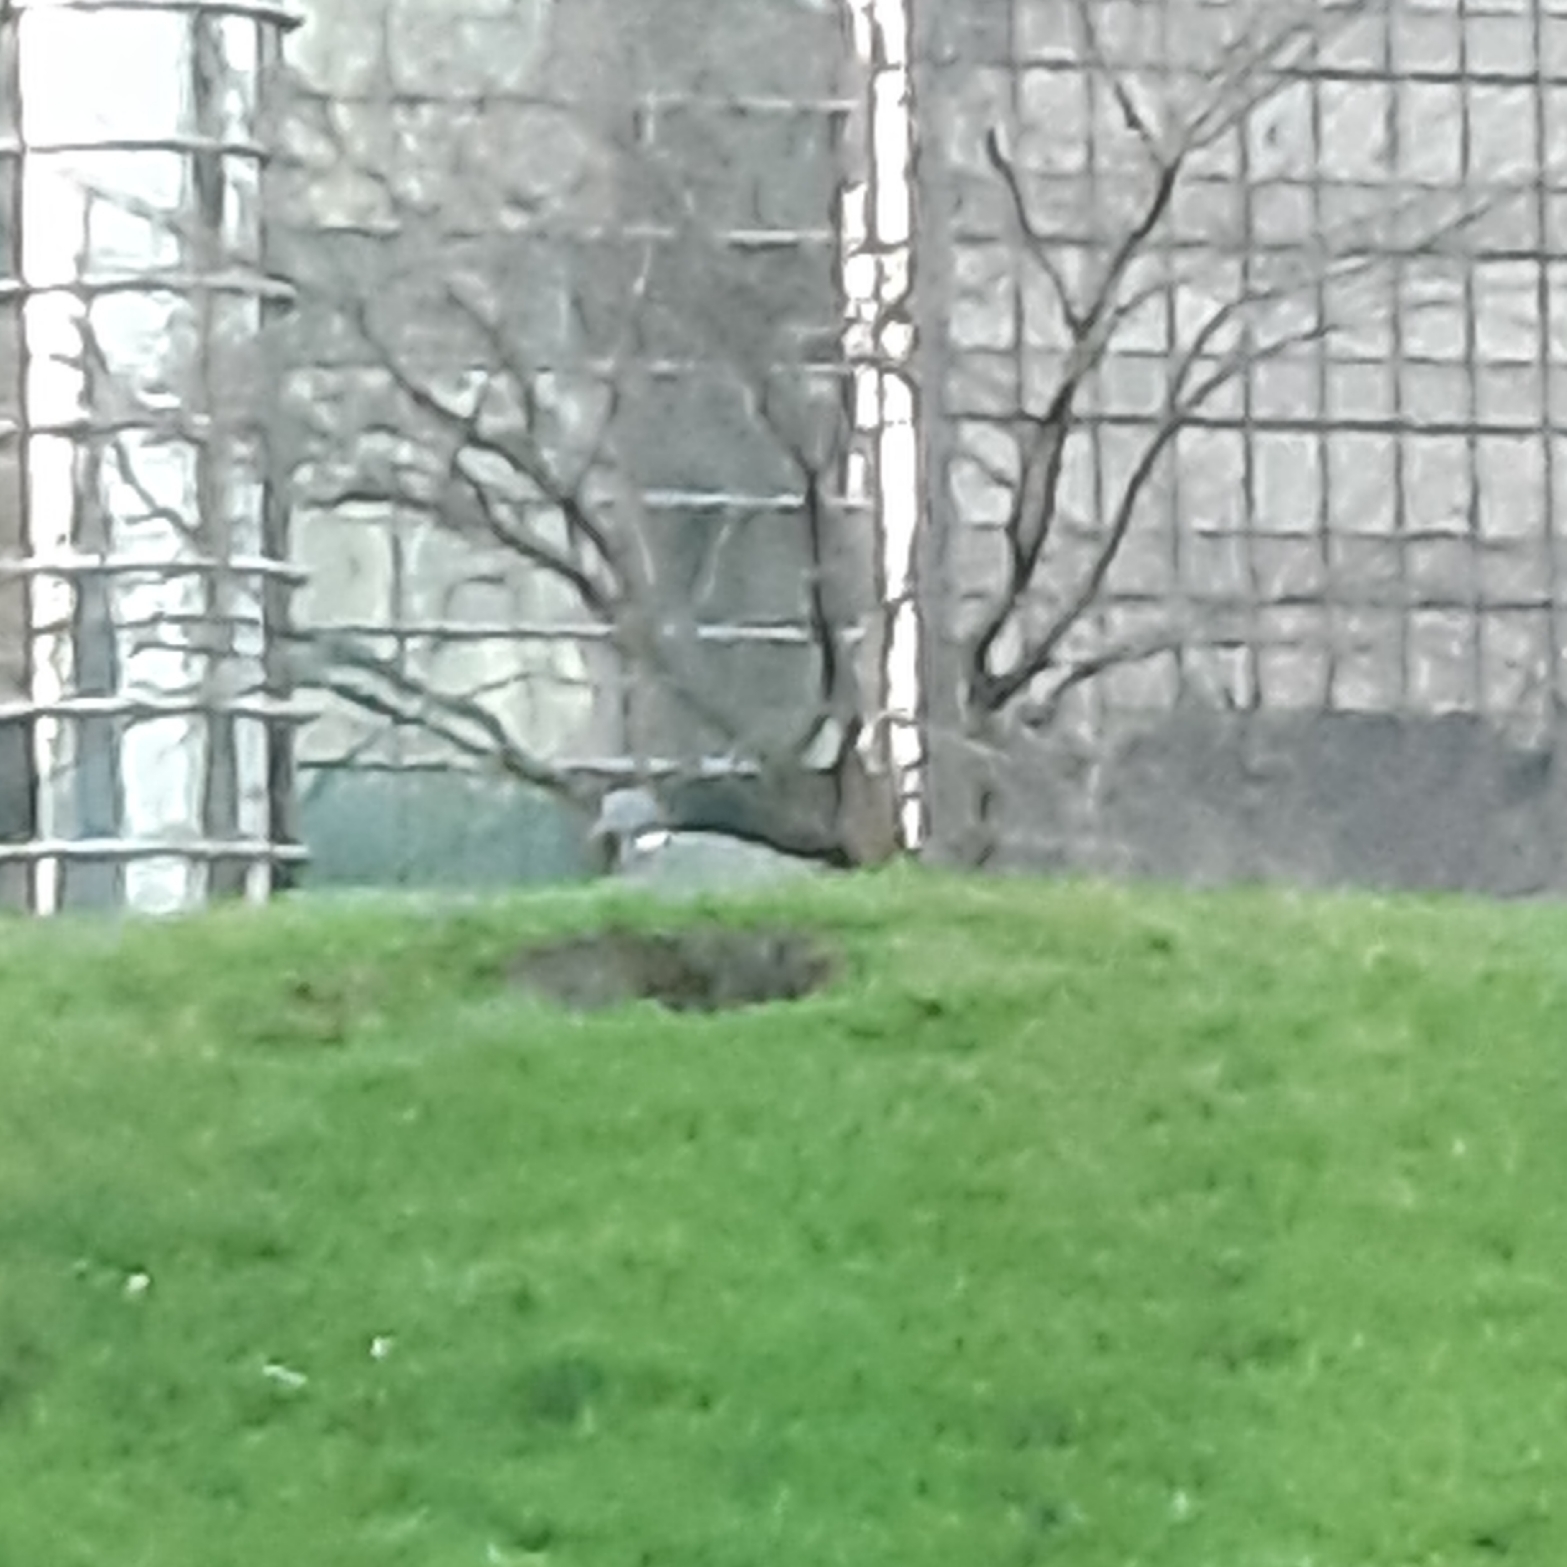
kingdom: Animalia
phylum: Chordata
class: Aves
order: Columbiformes
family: Columbidae
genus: Columba
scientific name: Columba palumbus
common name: Common wood pigeon
